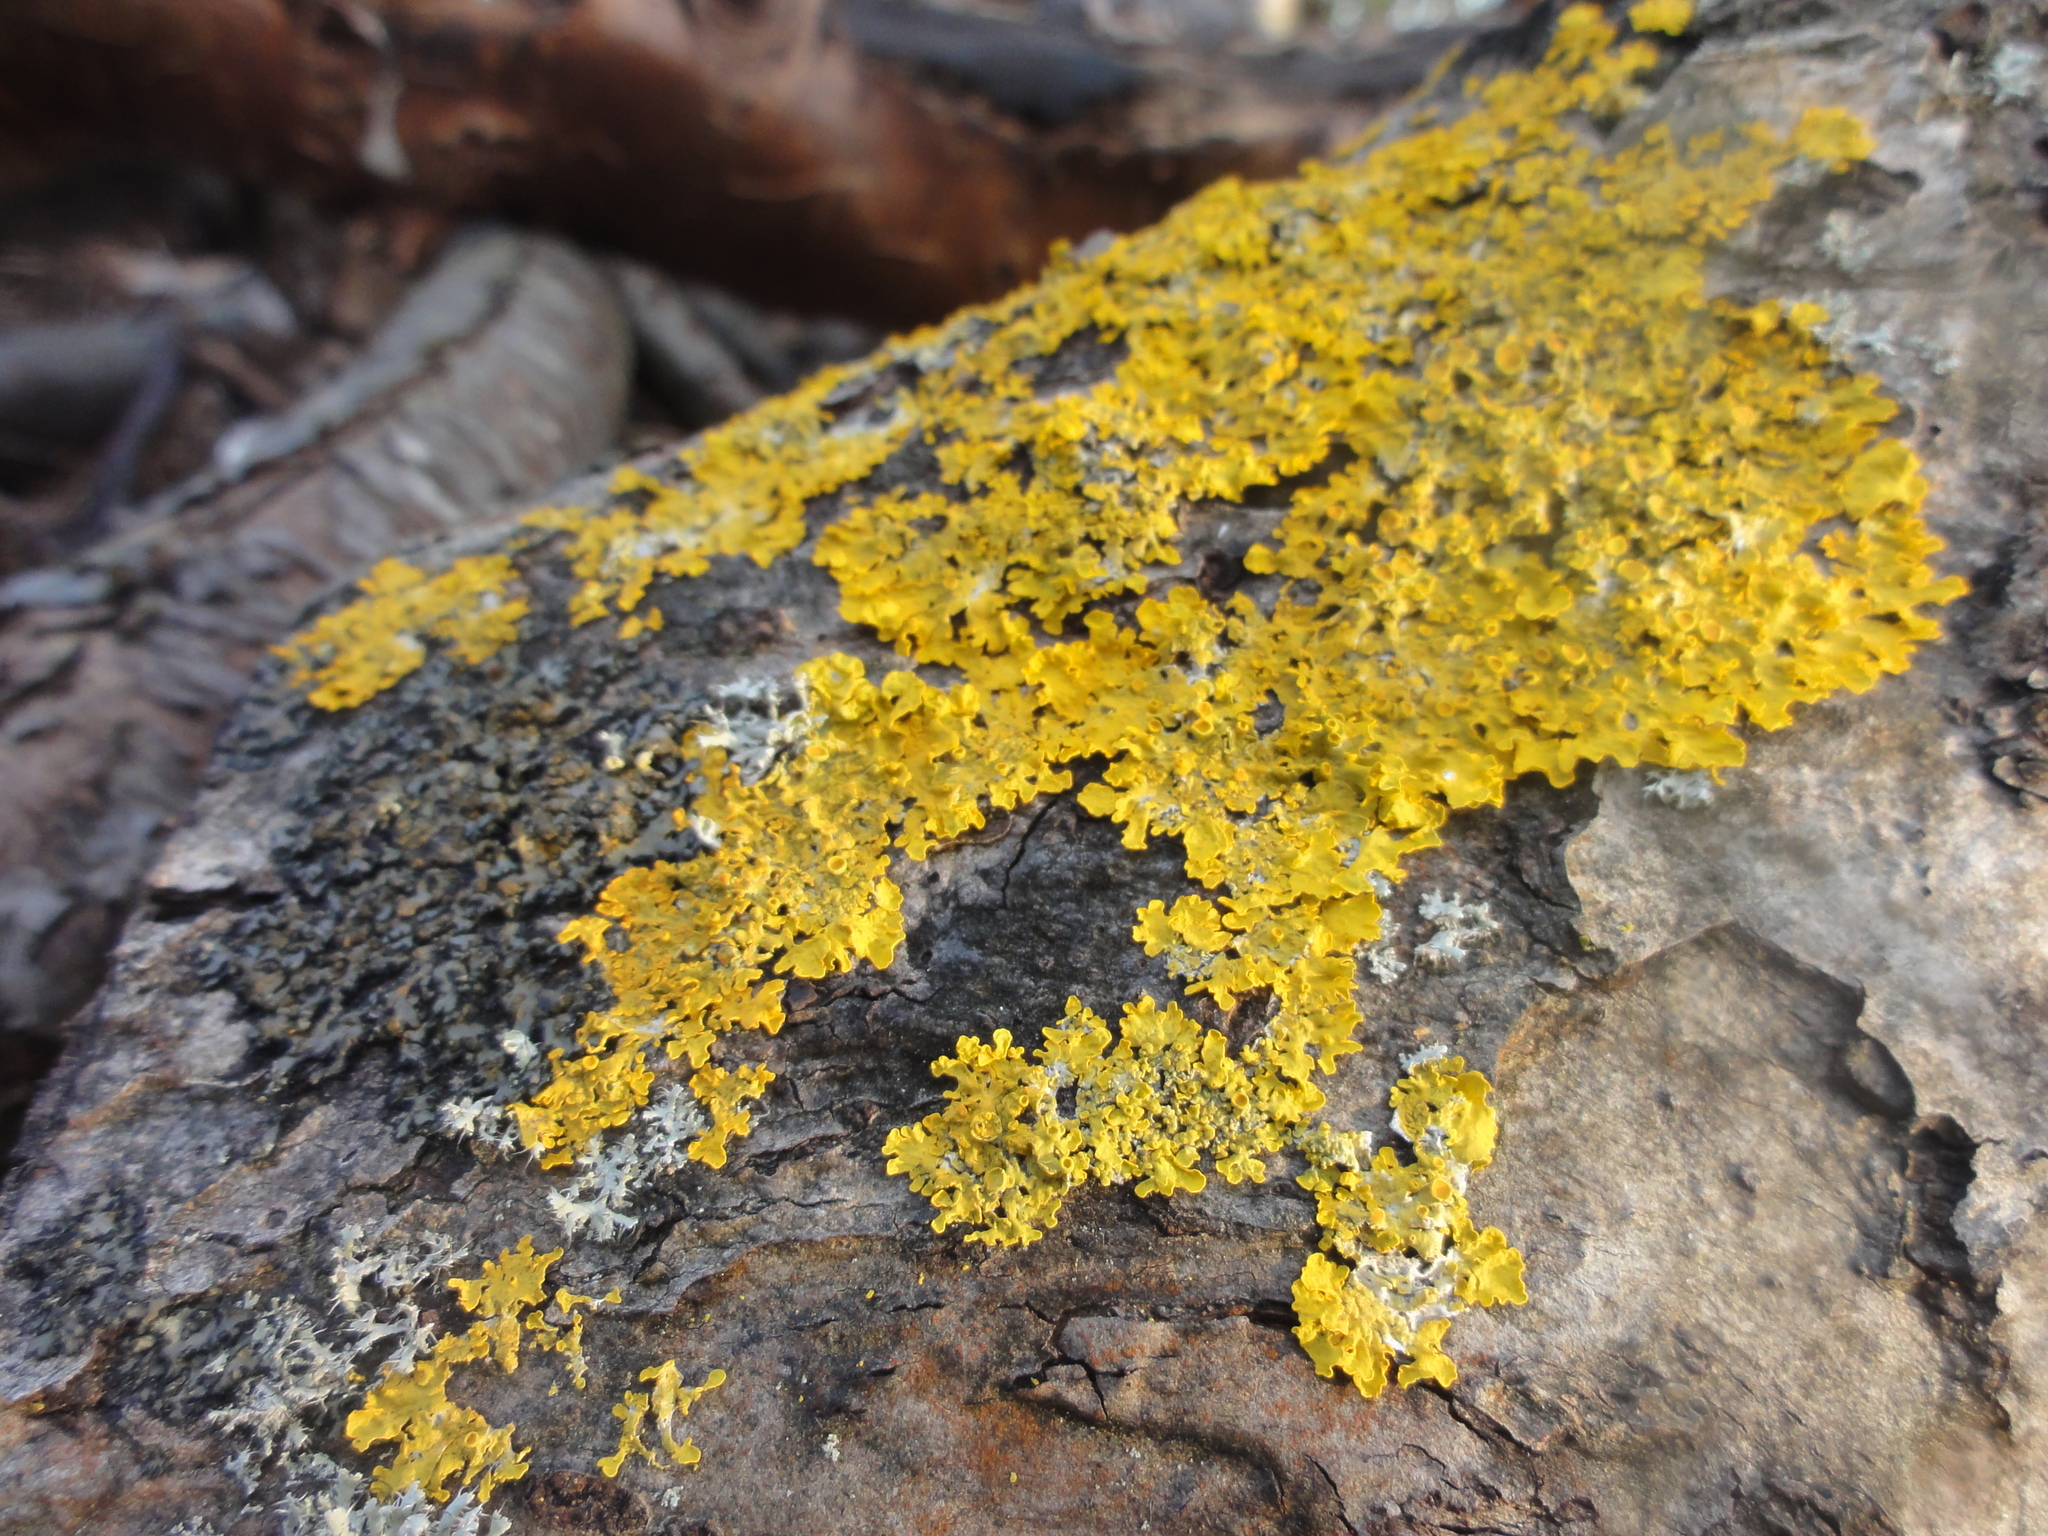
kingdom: Fungi
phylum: Ascomycota
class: Lecanoromycetes
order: Teloschistales
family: Teloschistaceae
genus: Xanthoria
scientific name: Xanthoria parietina
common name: Common orange lichen
